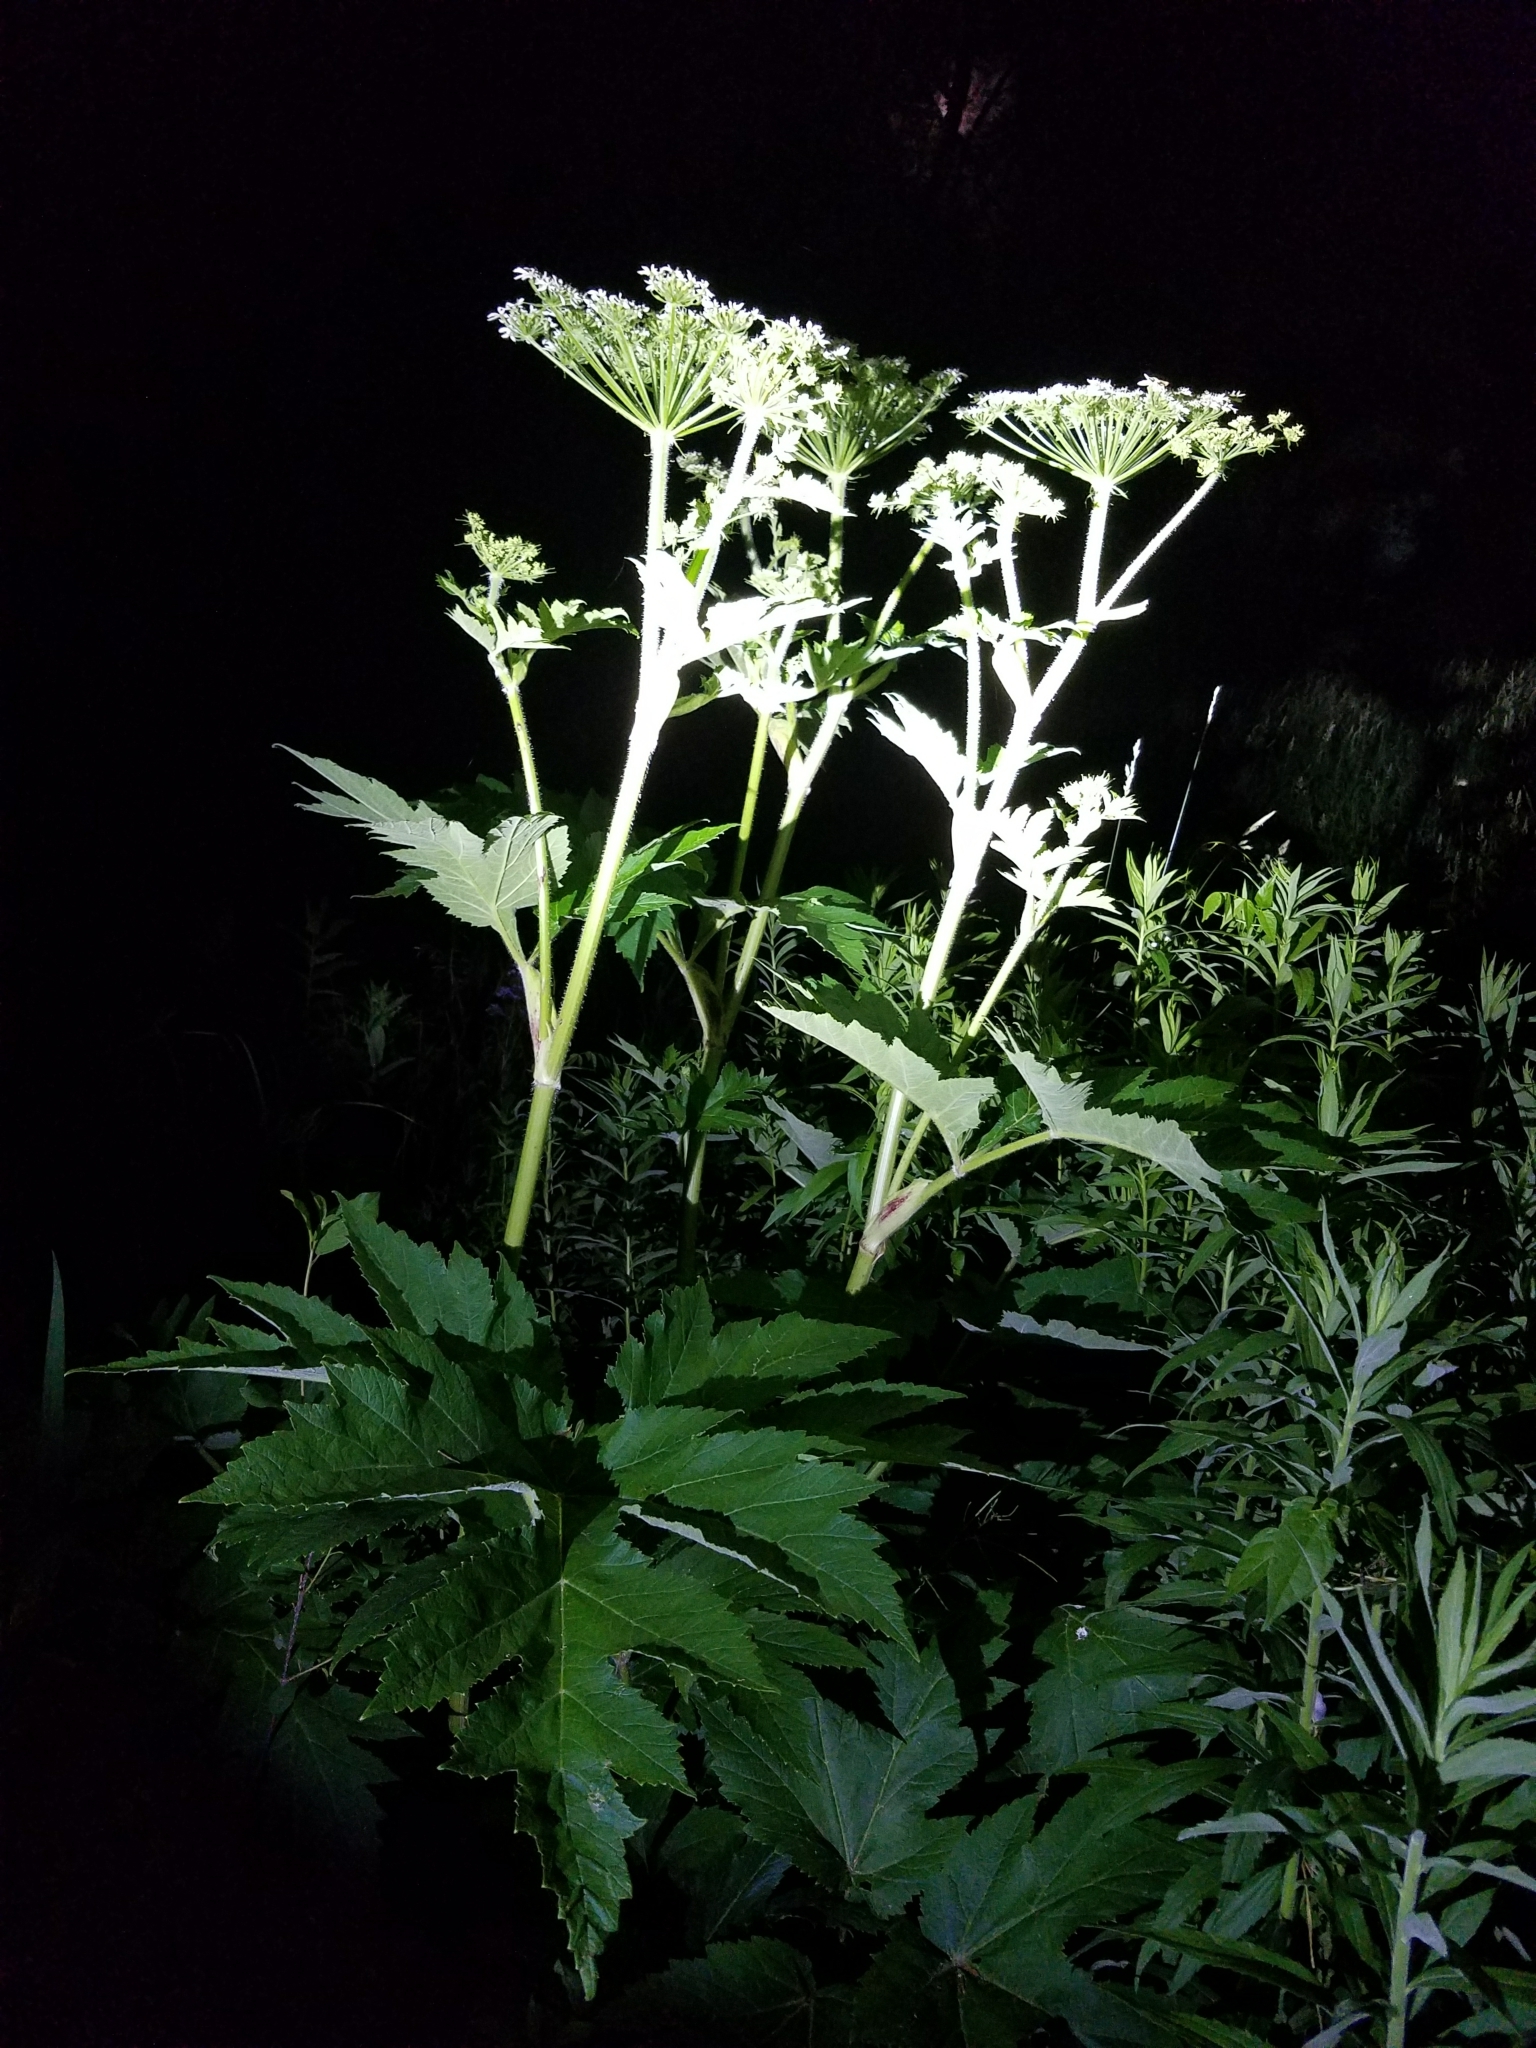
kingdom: Plantae
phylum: Tracheophyta
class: Magnoliopsida
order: Apiales
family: Apiaceae
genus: Heracleum
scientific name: Heracleum maximum
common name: American cow parsnip
